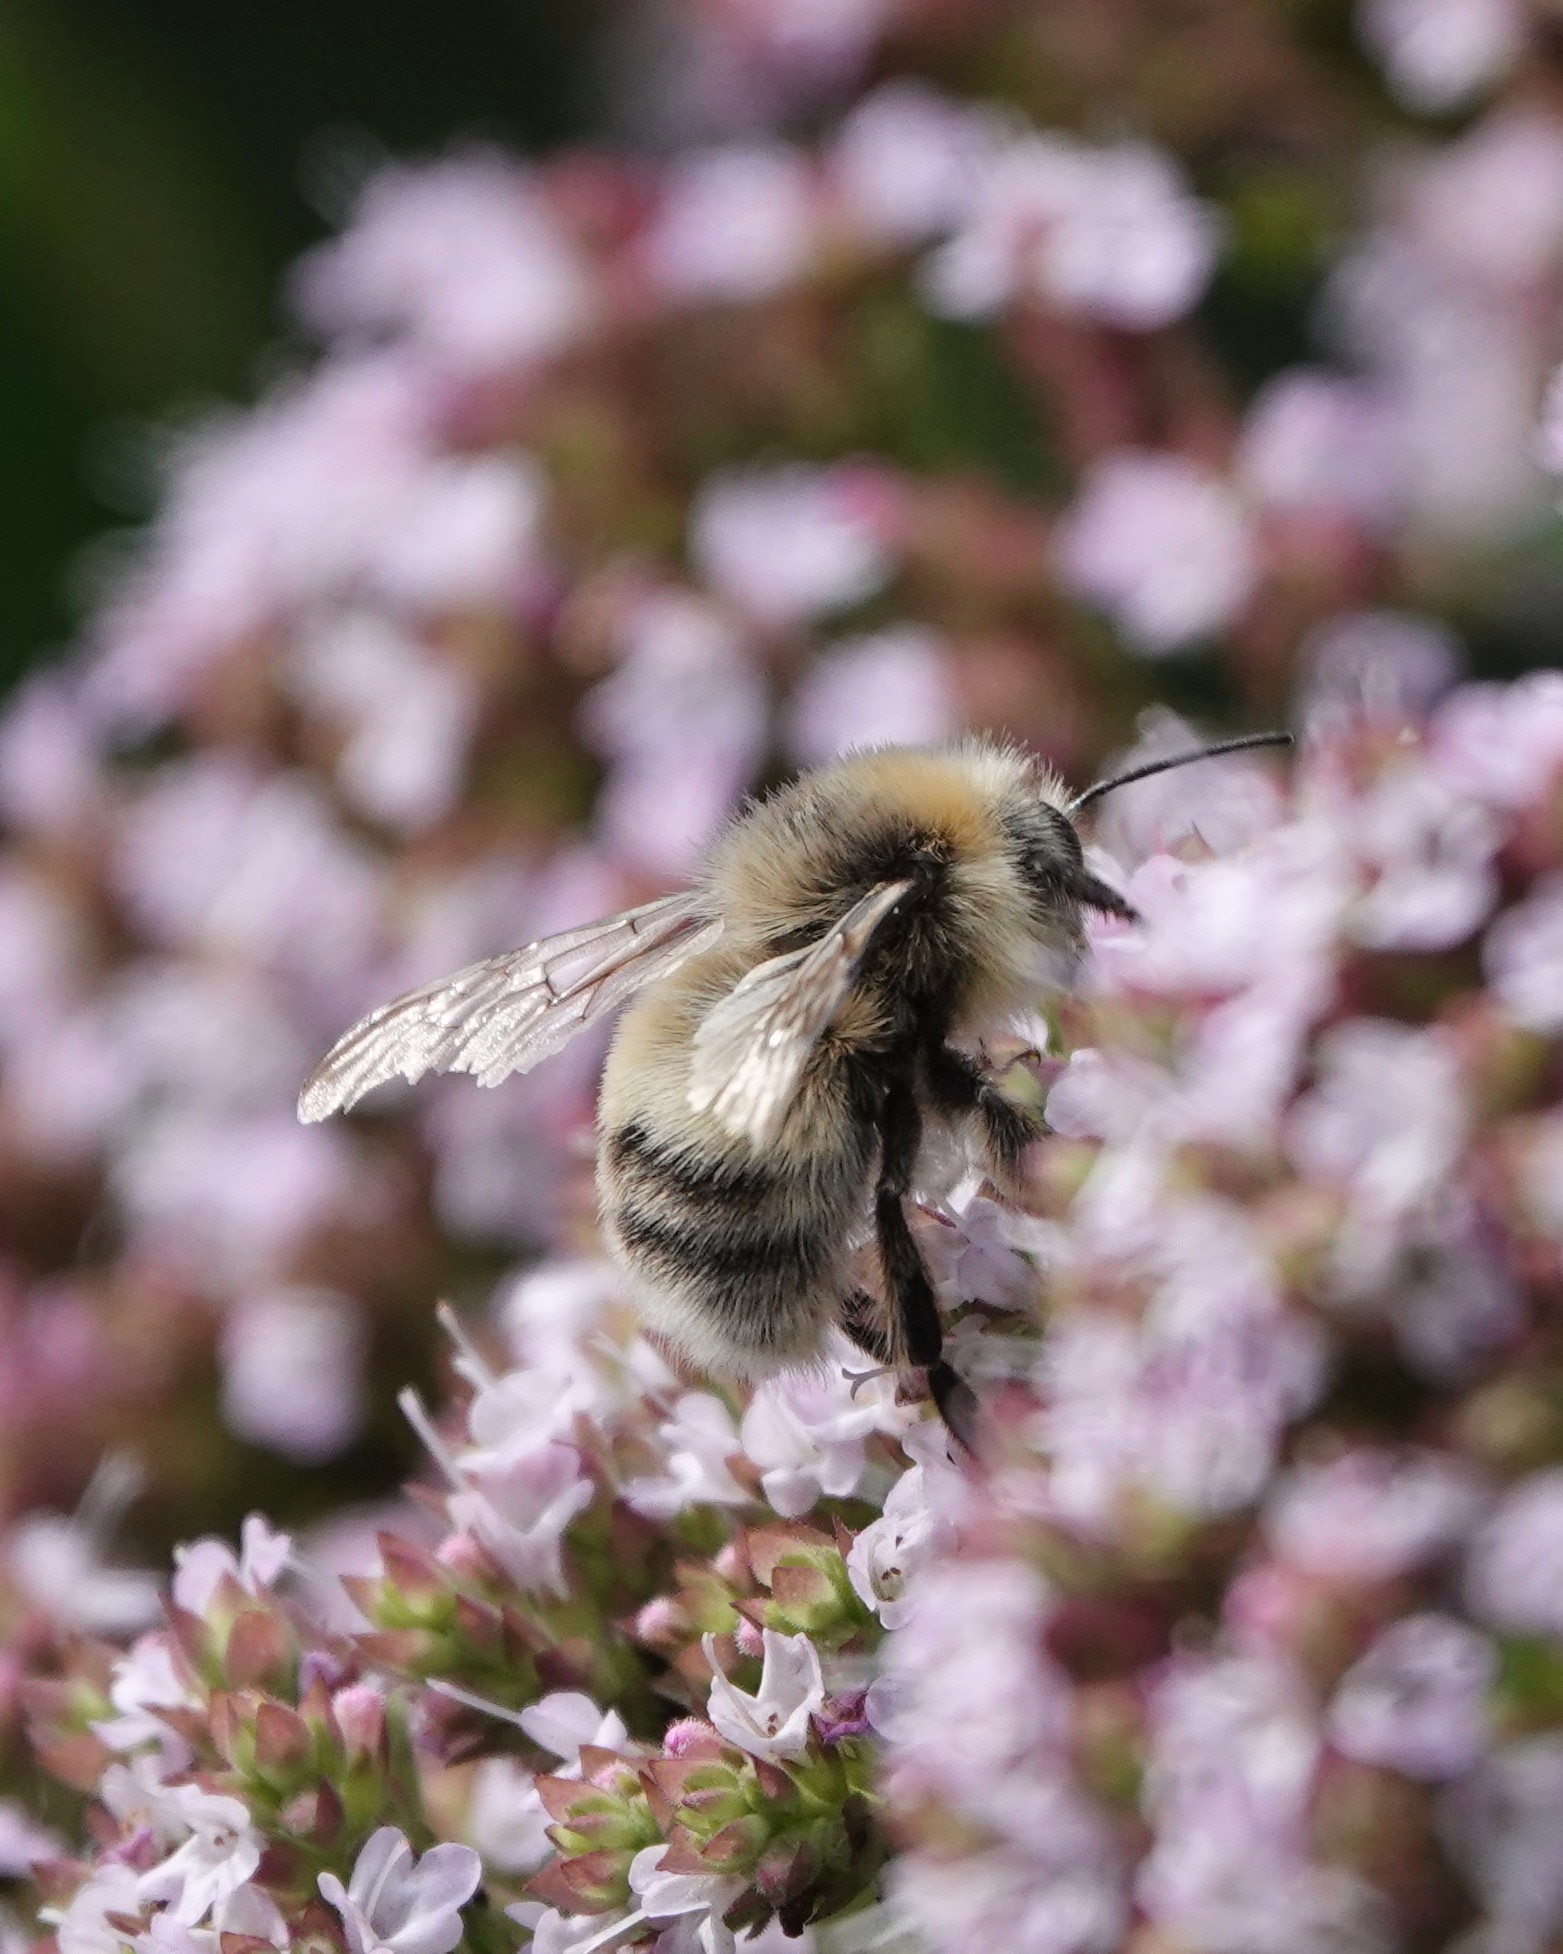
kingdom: Animalia
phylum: Arthropoda
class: Insecta
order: Hymenoptera
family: Apidae
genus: Bombus
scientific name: Bombus lucorum
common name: White-tailed bumblebee
